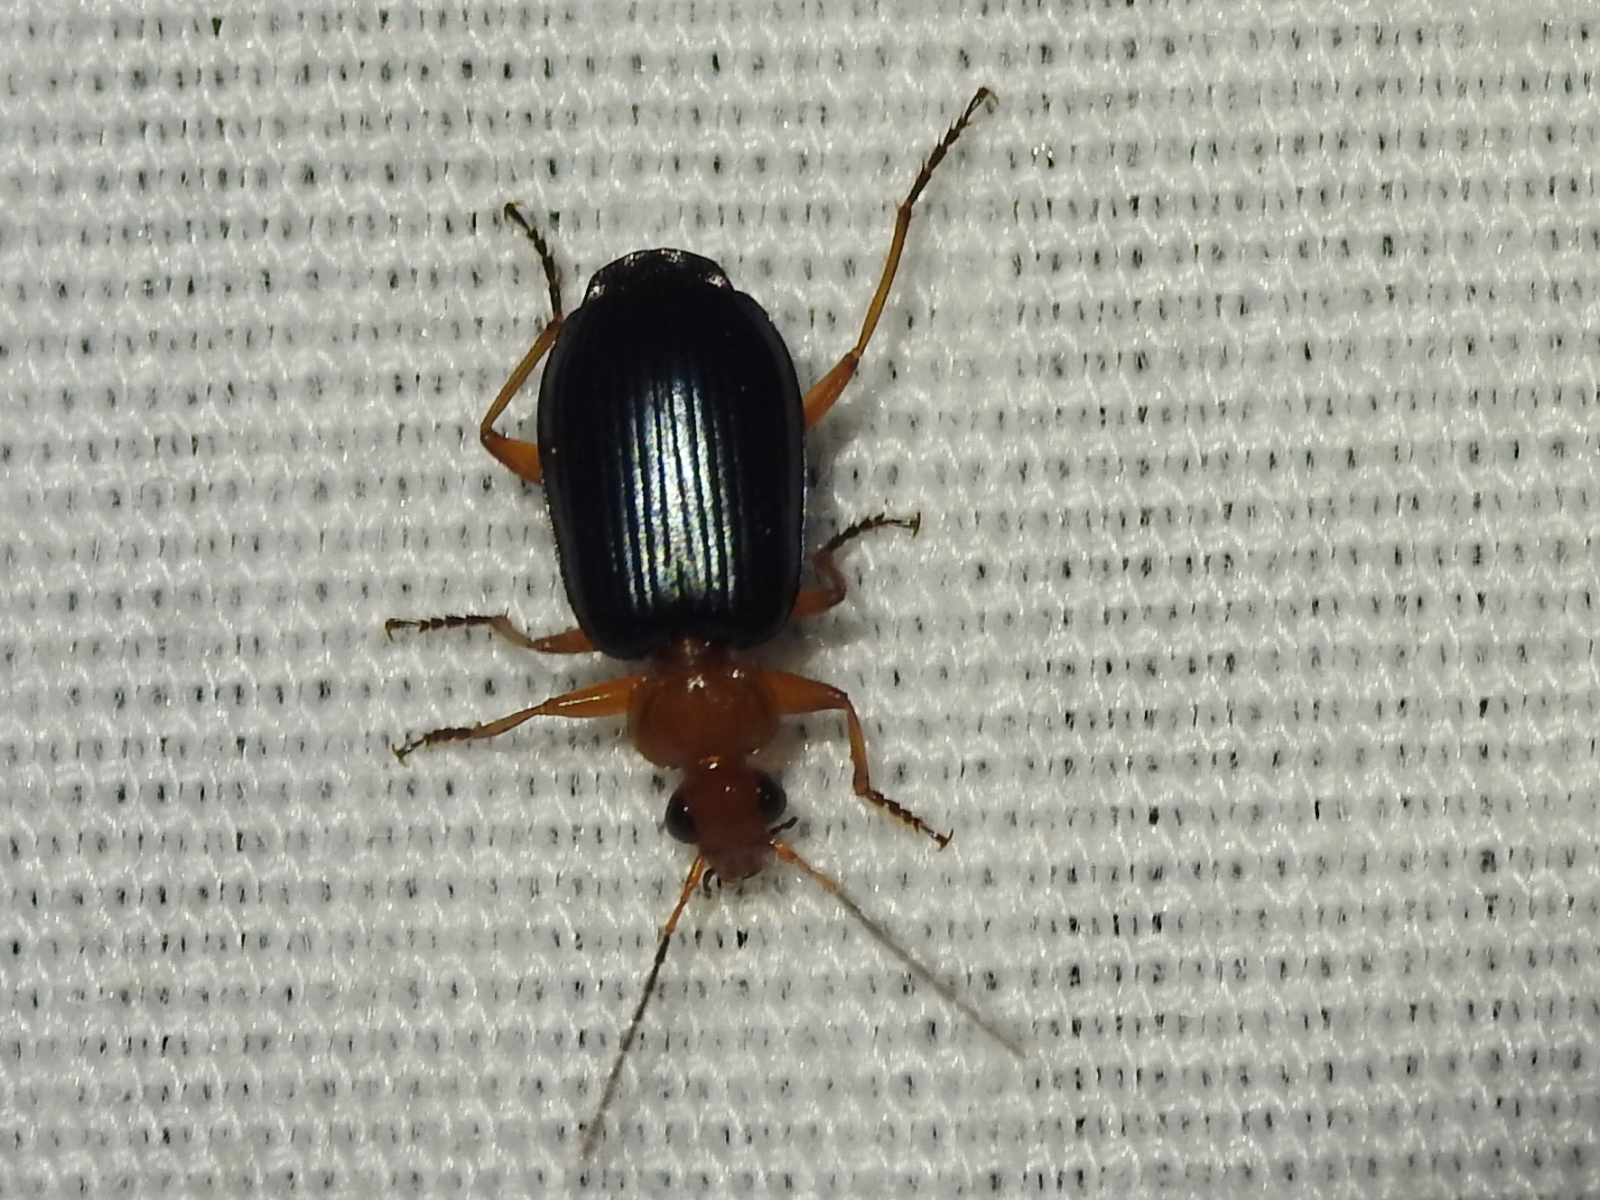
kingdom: Animalia
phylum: Arthropoda
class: Insecta
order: Coleoptera
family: Carabidae
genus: Lebia
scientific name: Lebia grandis
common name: Large foliage ground beetle
